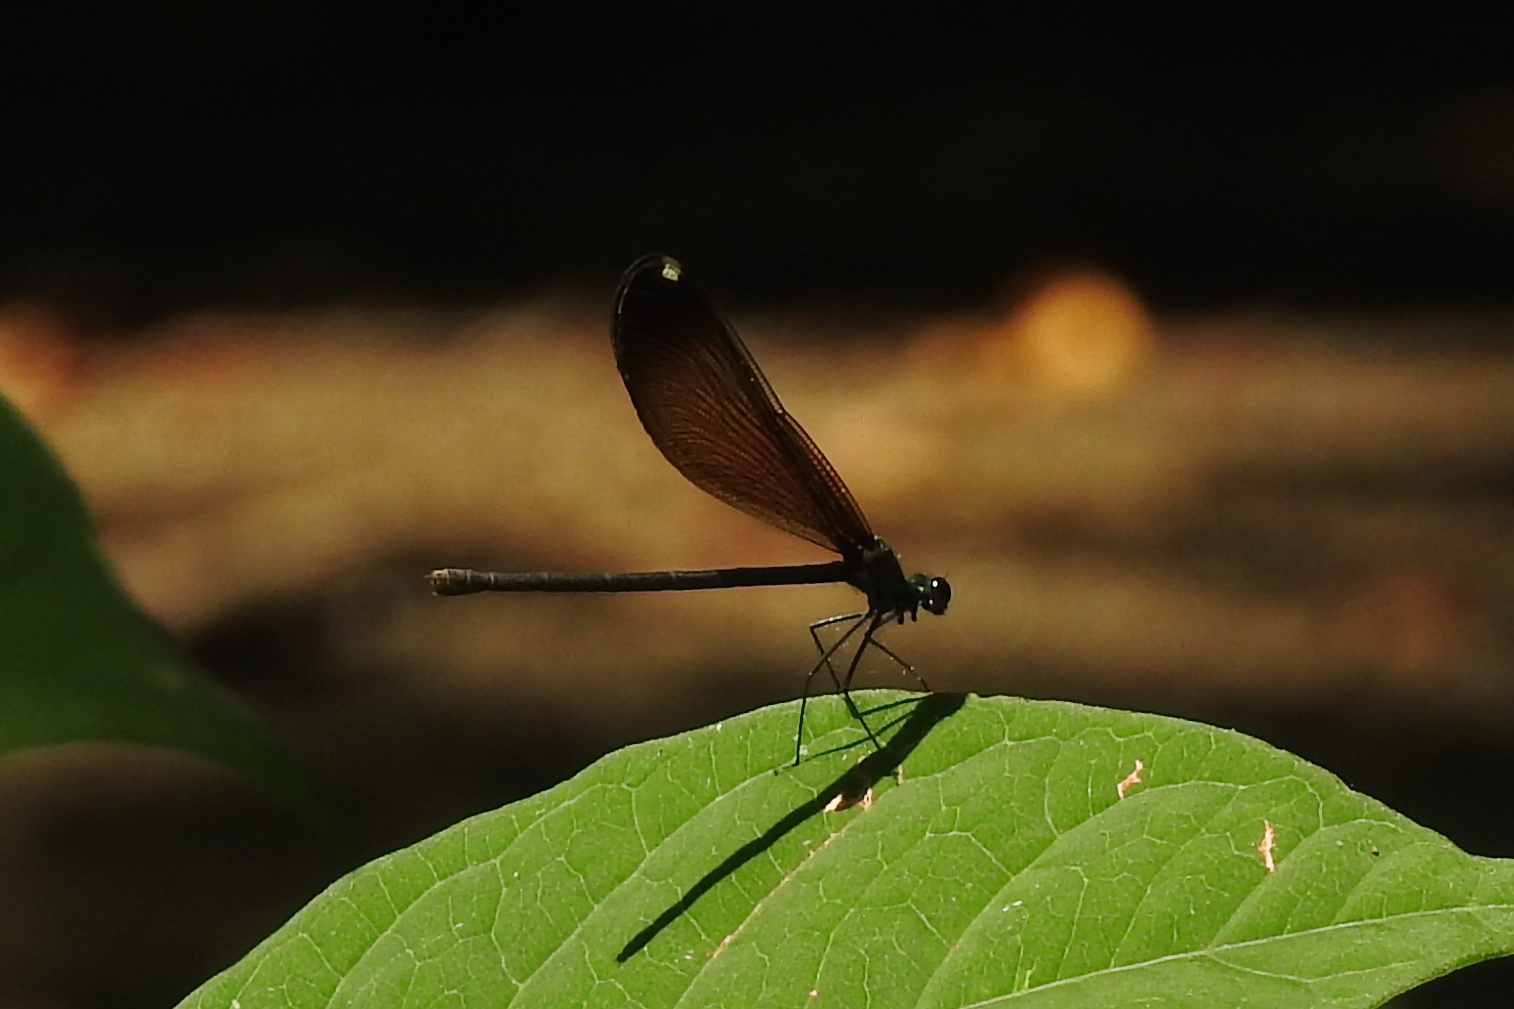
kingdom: Animalia
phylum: Arthropoda
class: Insecta
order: Odonata
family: Calopterygidae
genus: Calopteryx
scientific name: Calopteryx maculata
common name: Ebony jewelwing
